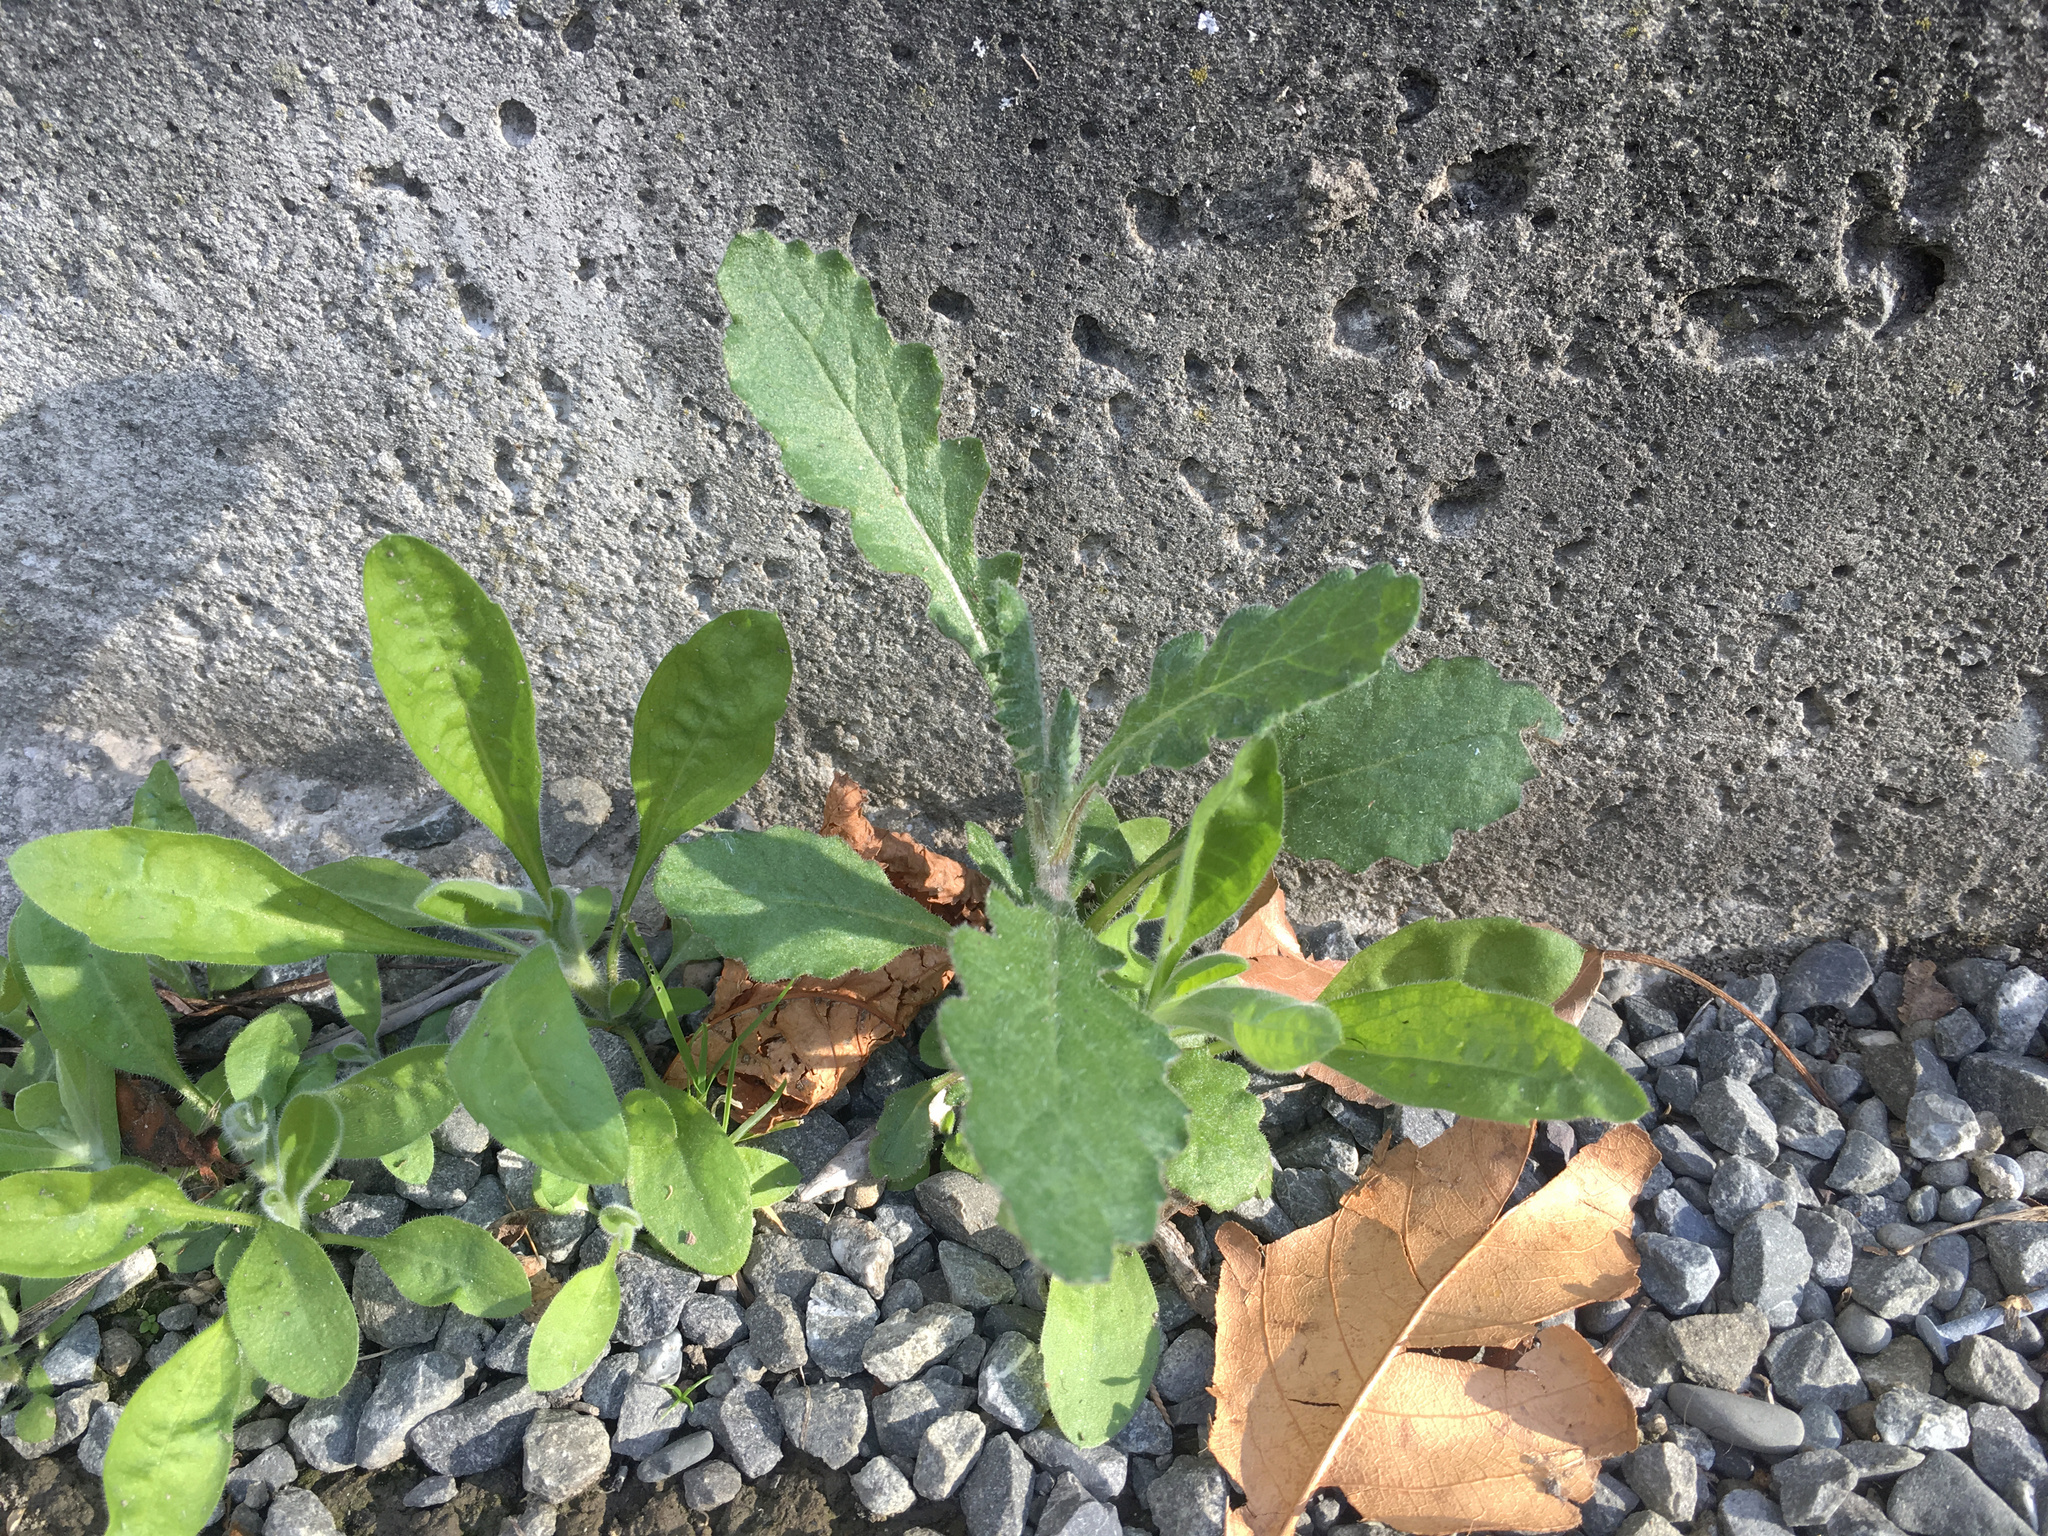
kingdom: Plantae
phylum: Tracheophyta
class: Magnoliopsida
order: Asterales
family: Asteraceae
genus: Senecio
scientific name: Senecio glomeratus
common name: Cutleaf burnweed
